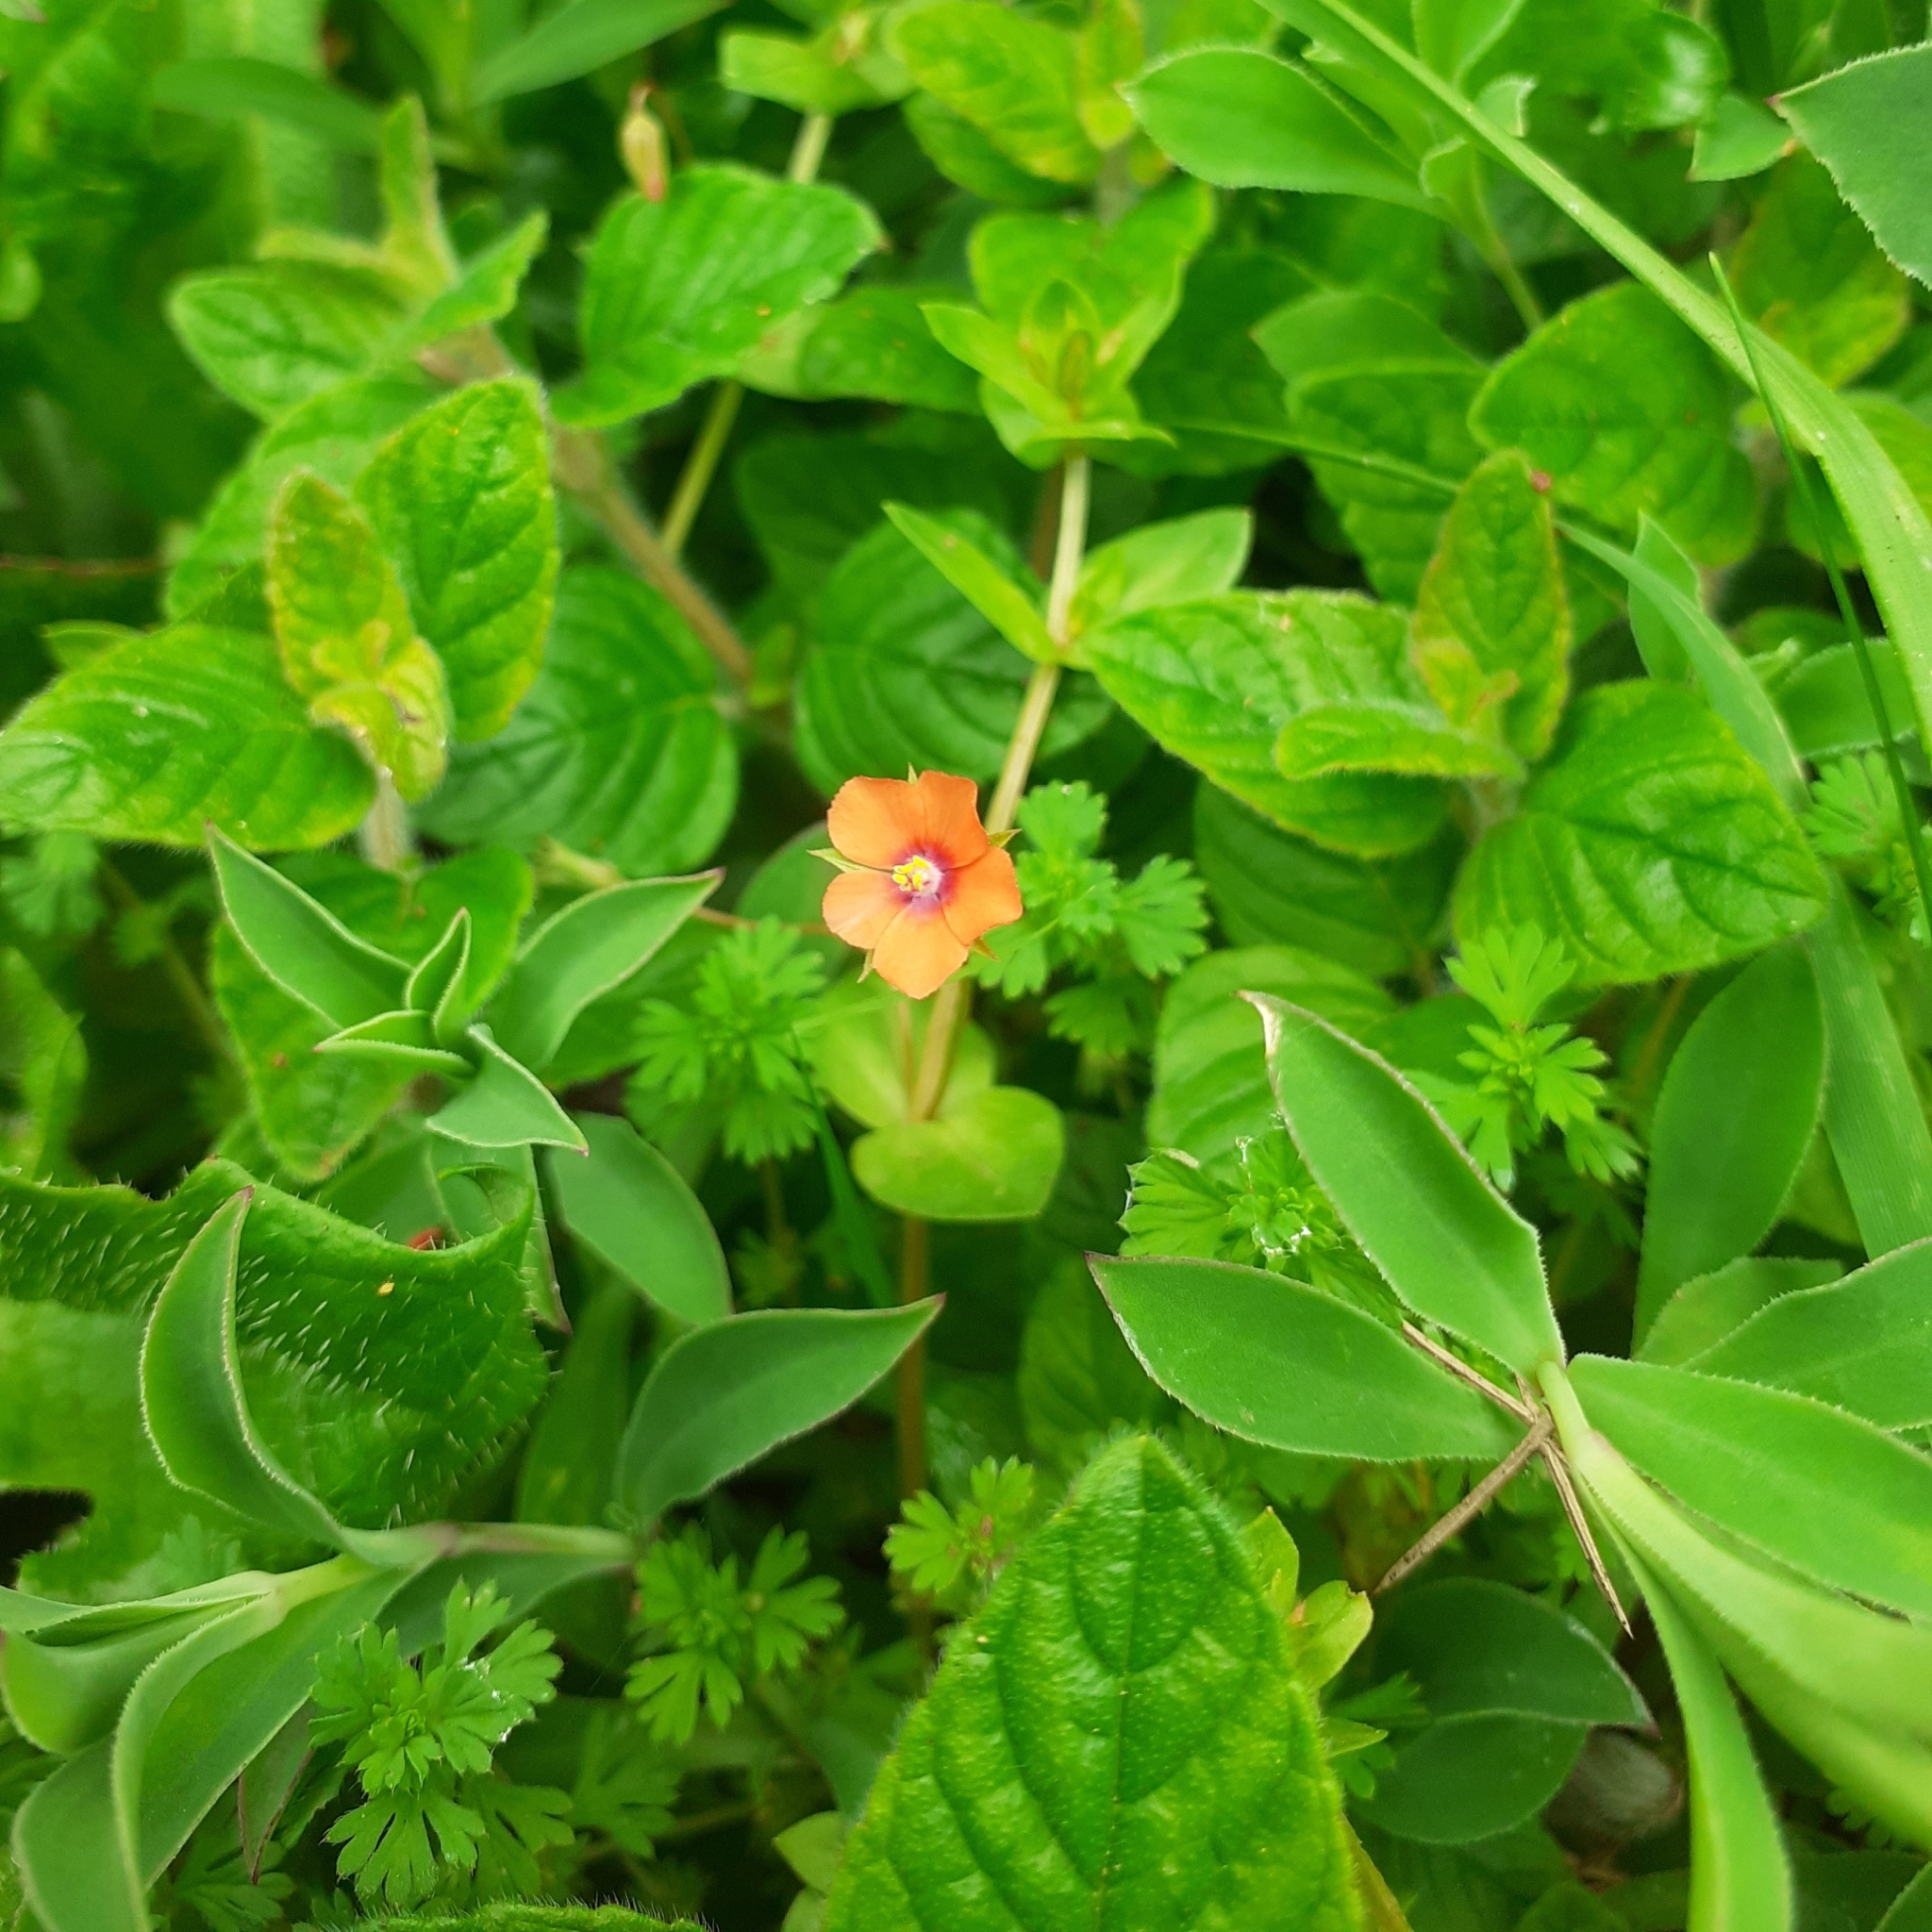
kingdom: Plantae
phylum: Tracheophyta
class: Magnoliopsida
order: Ericales
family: Primulaceae
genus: Lysimachia
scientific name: Lysimachia arvensis
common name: Scarlet pimpernel
